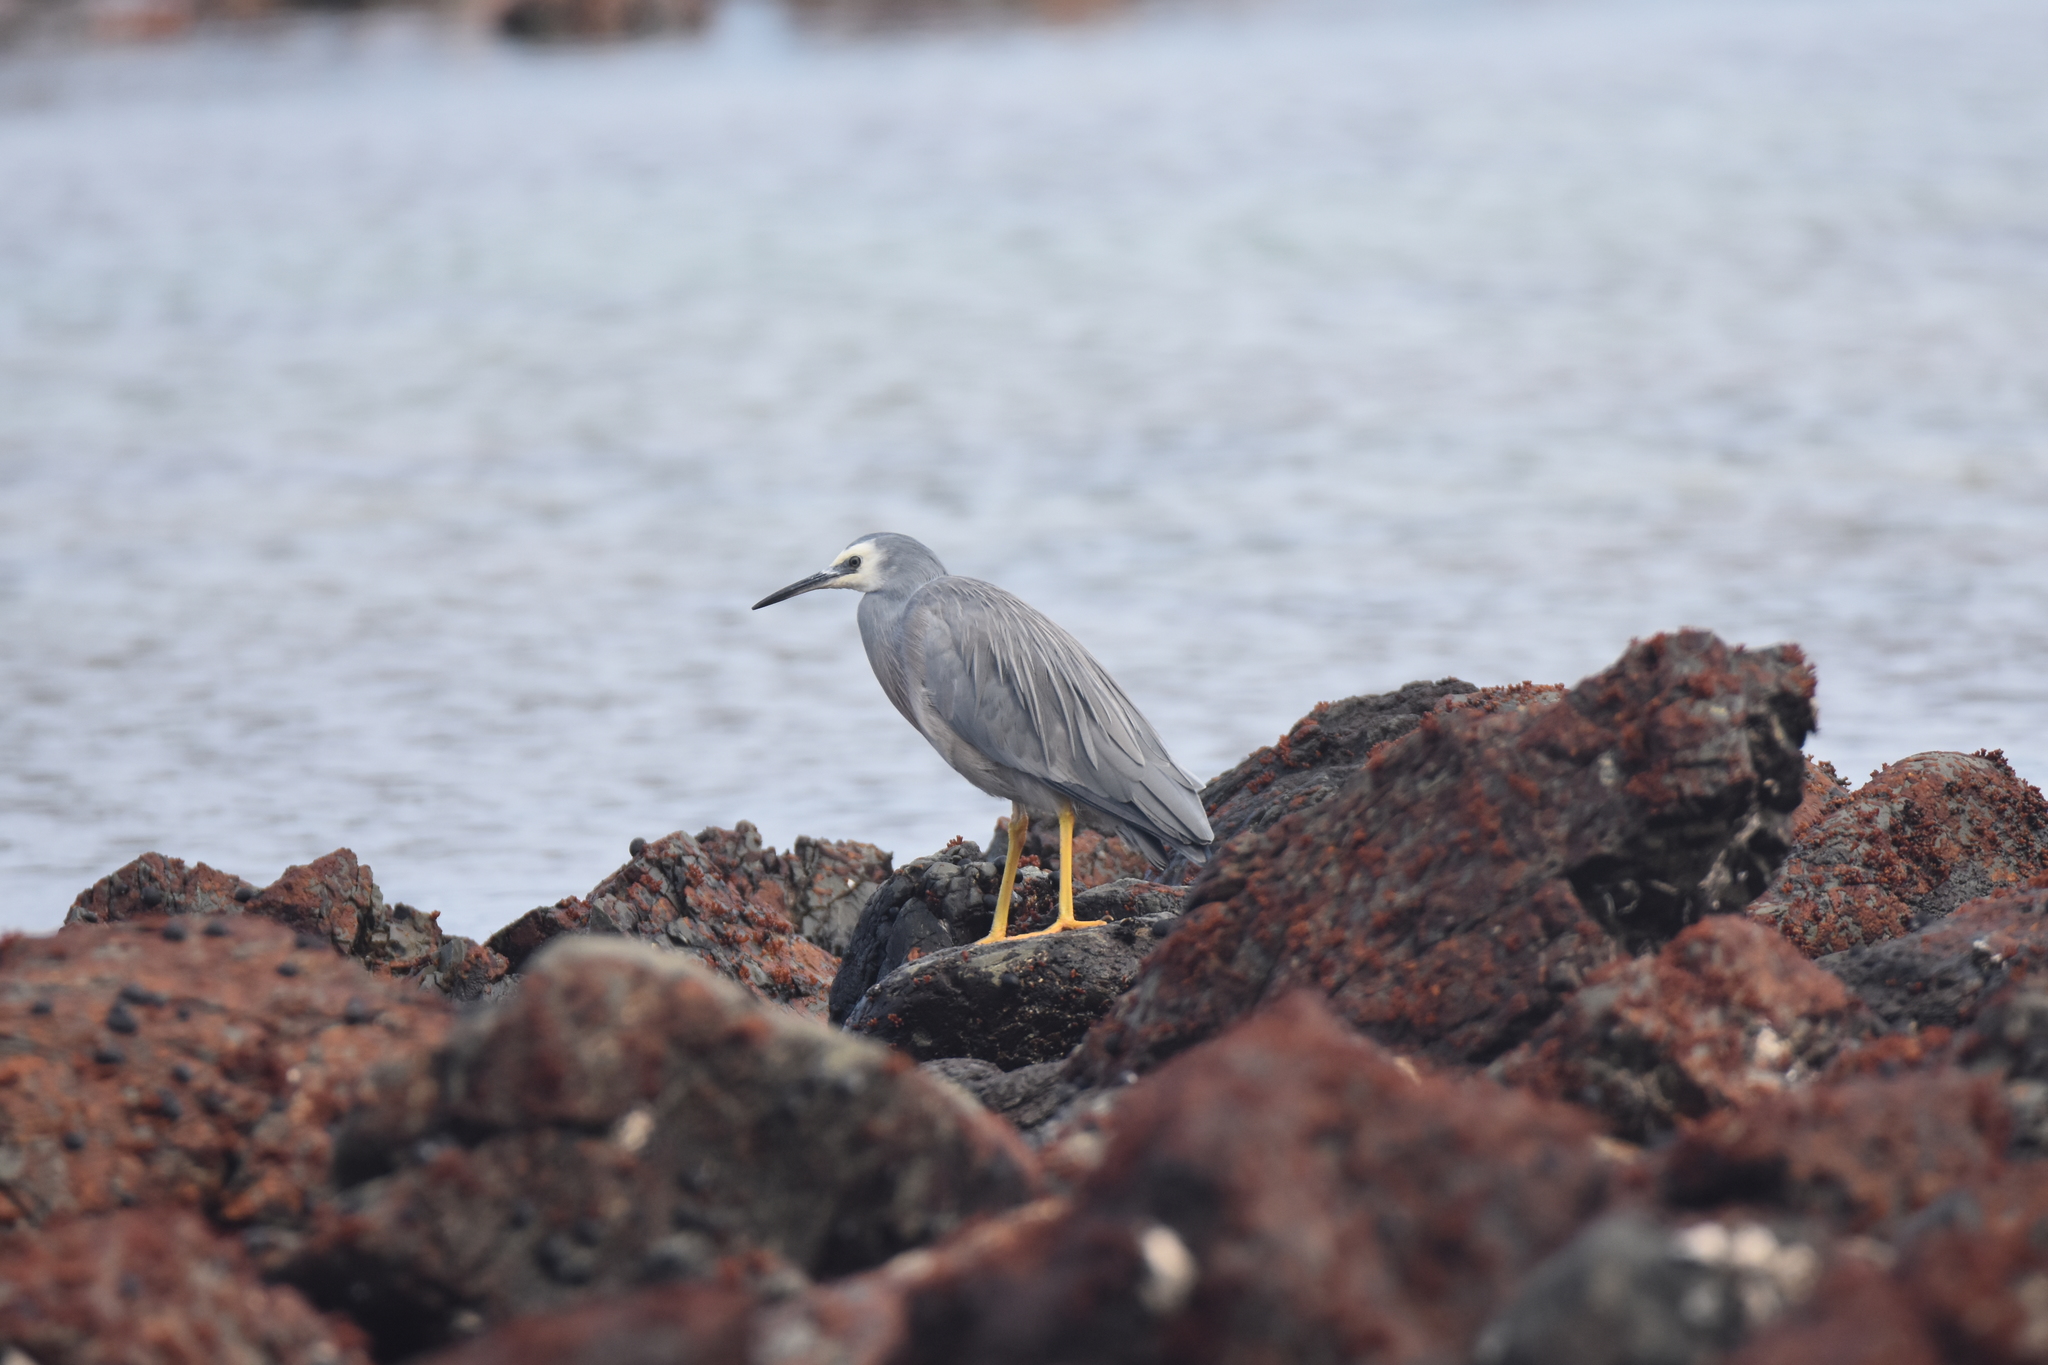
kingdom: Animalia
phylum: Chordata
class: Aves
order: Pelecaniformes
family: Ardeidae
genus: Egretta
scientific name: Egretta novaehollandiae
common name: White-faced heron
